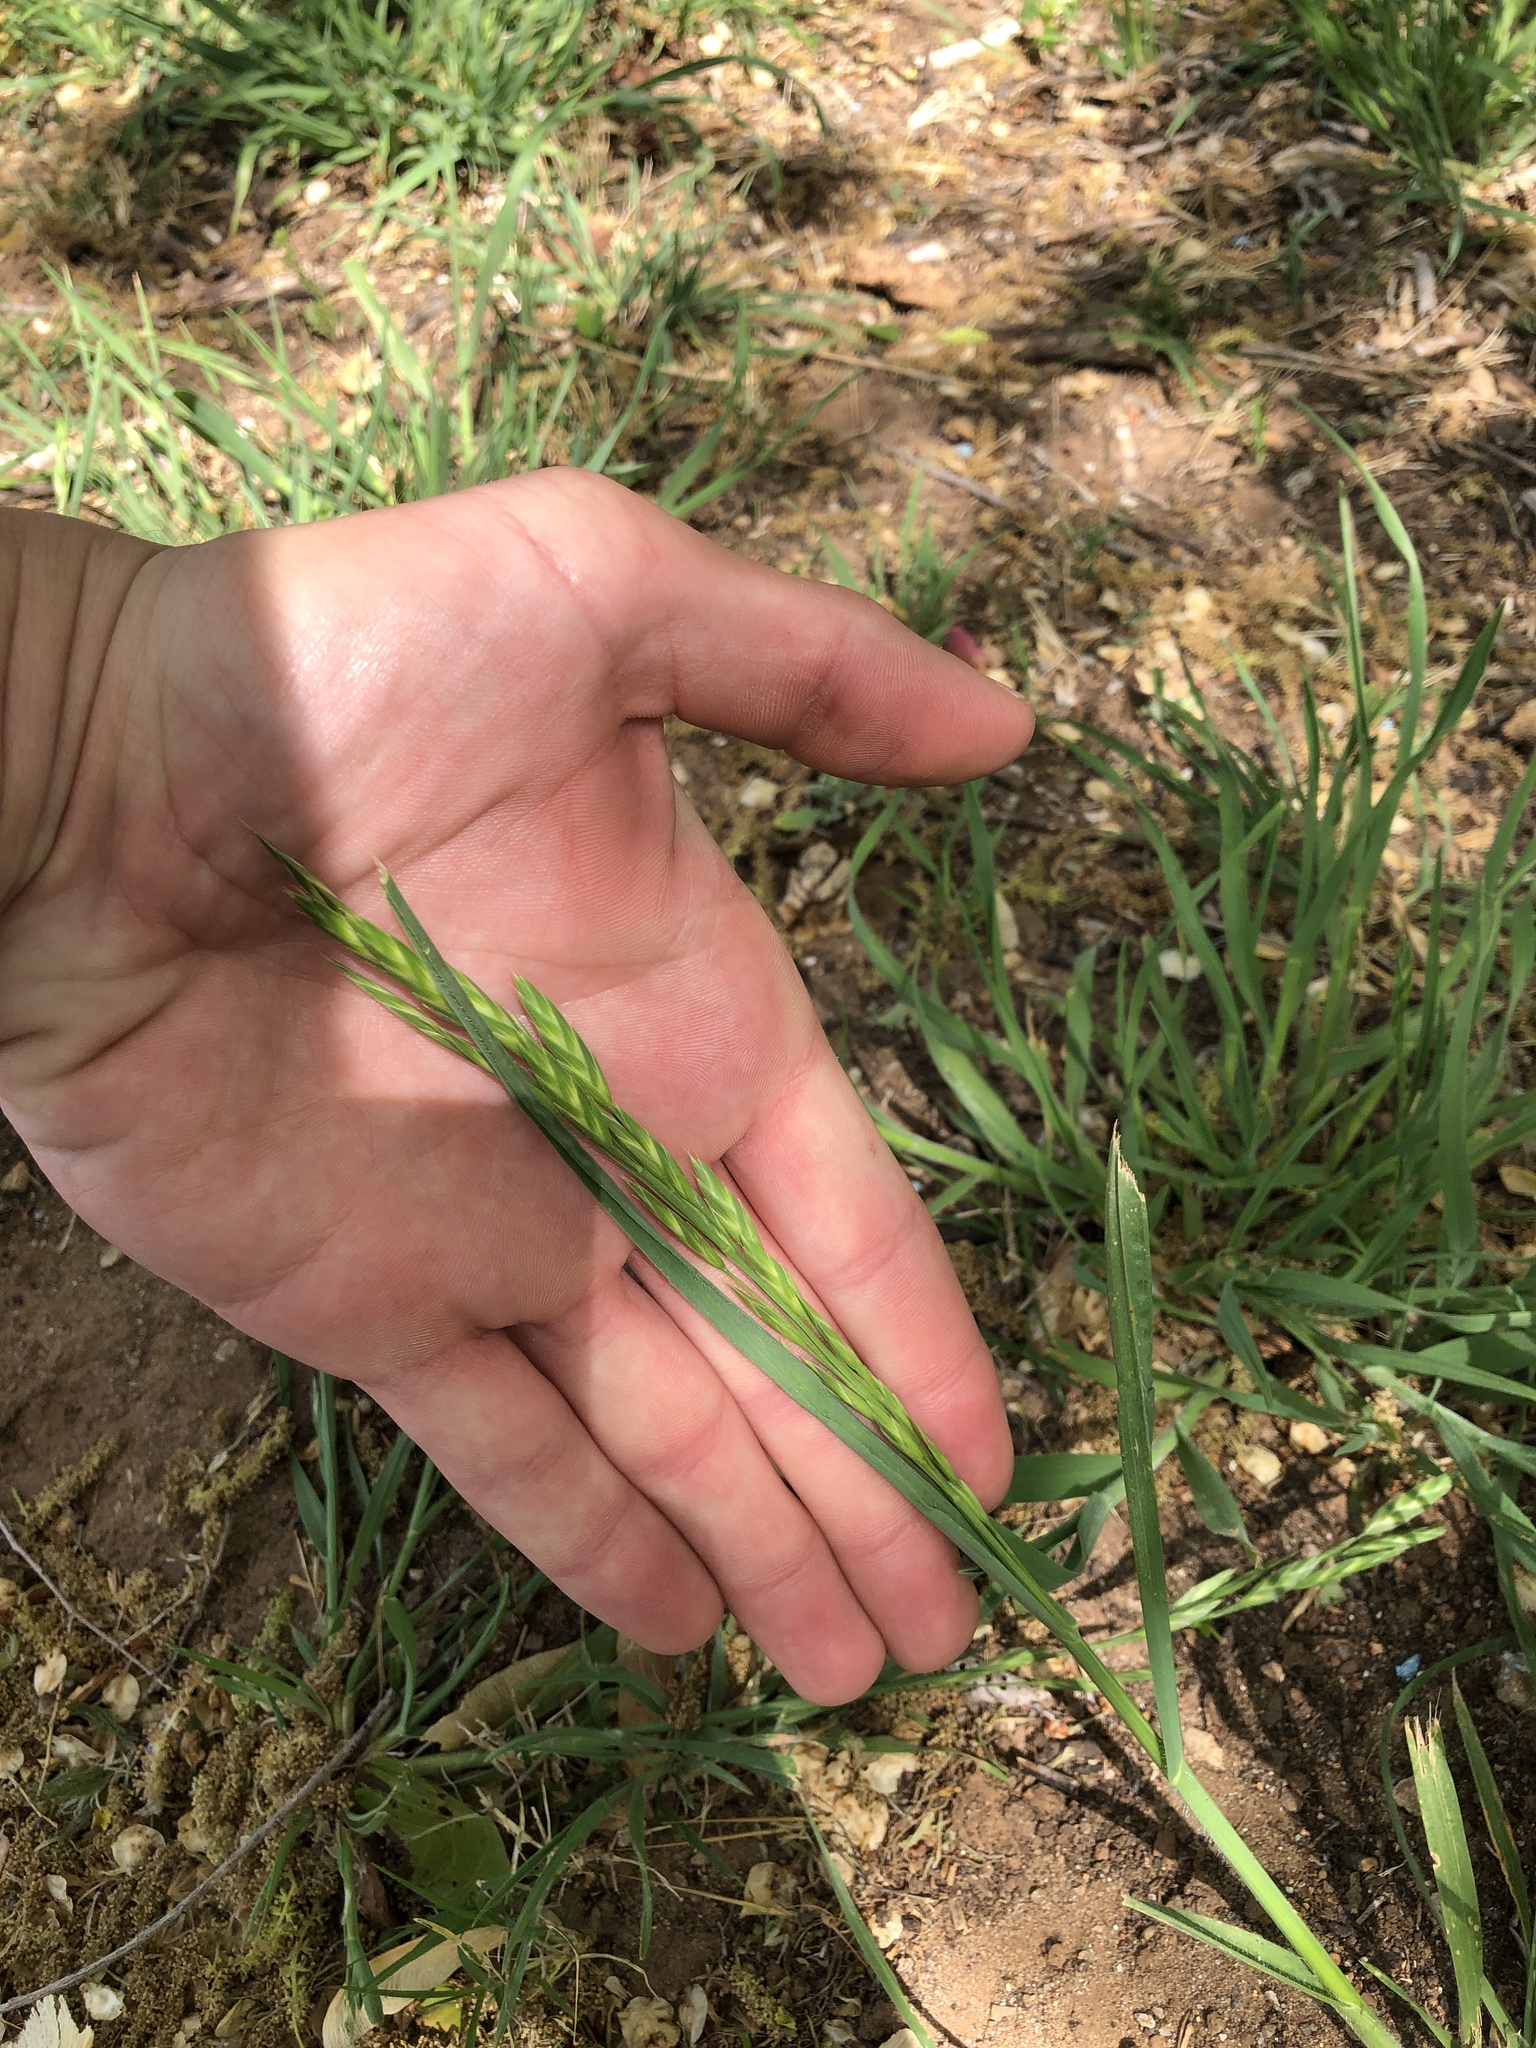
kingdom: Plantae
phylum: Tracheophyta
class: Liliopsida
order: Poales
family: Poaceae
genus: Bromus
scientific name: Bromus catharticus
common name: Rescuegrass
